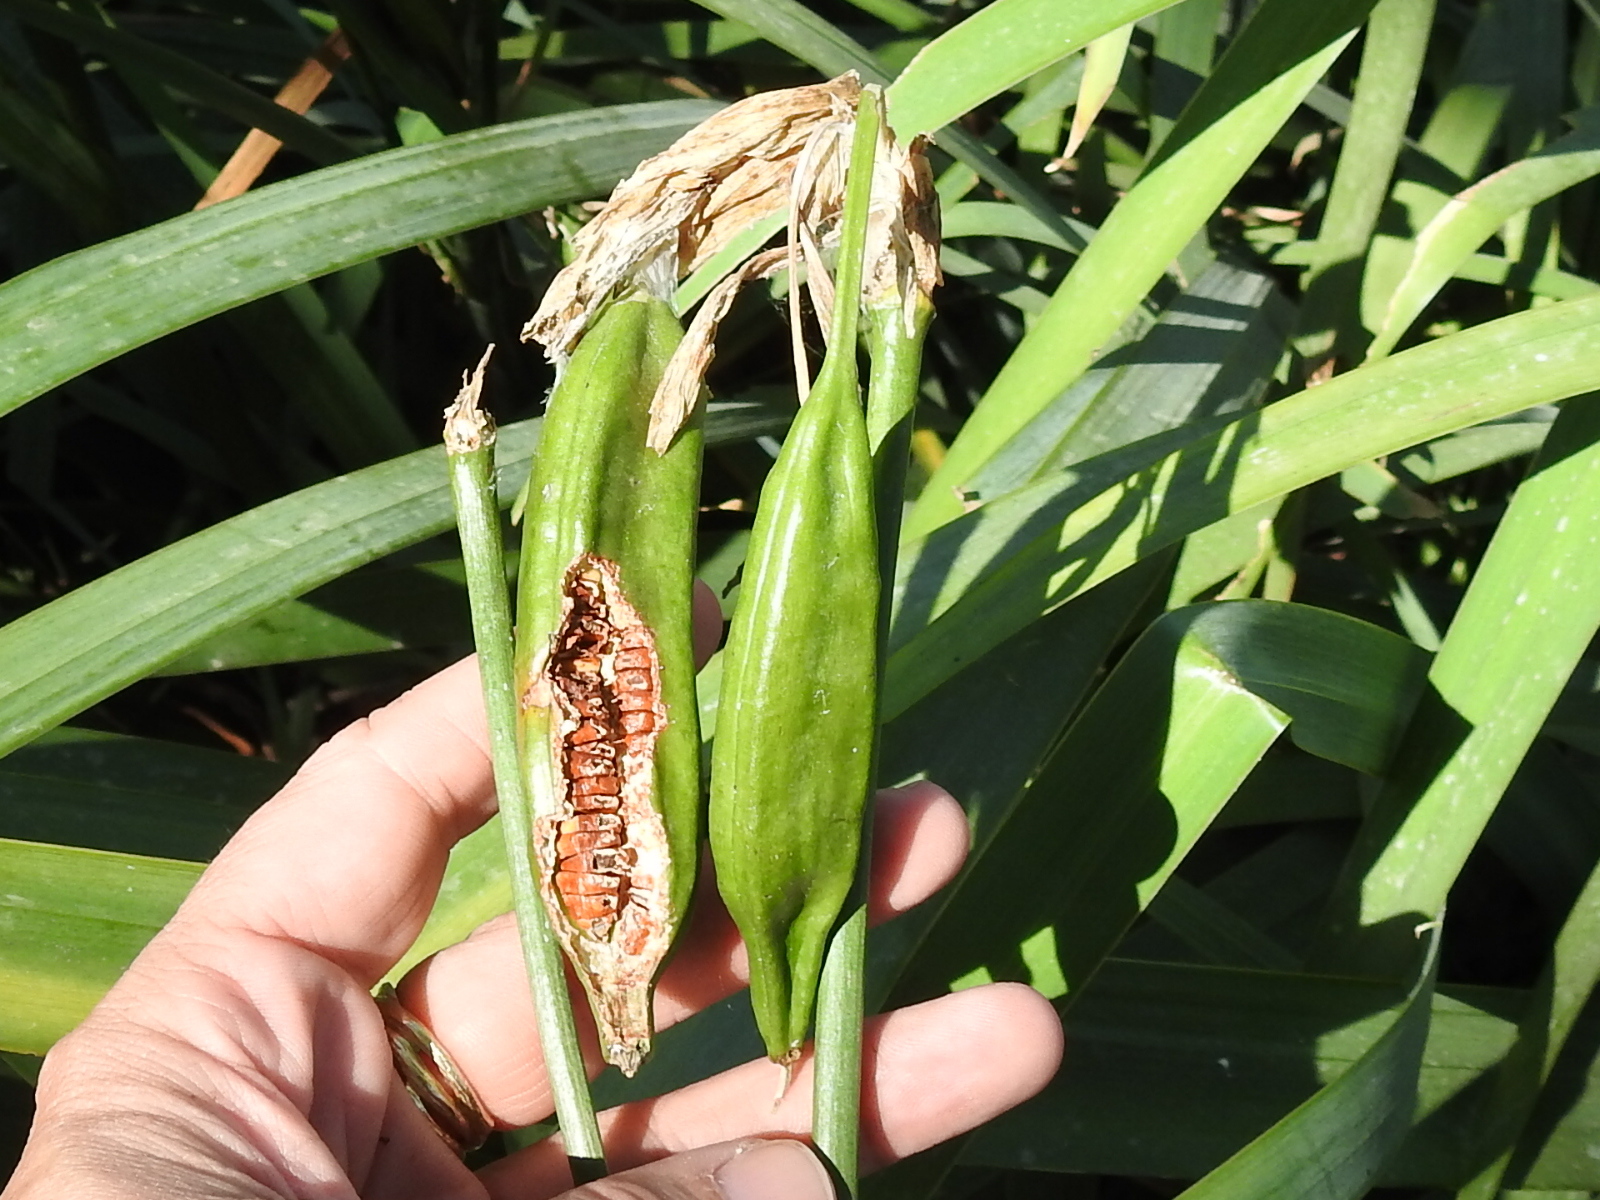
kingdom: Plantae
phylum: Tracheophyta
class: Liliopsida
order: Asparagales
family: Iridaceae
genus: Iris
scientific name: Iris pseudacorus
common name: Yellow flag
